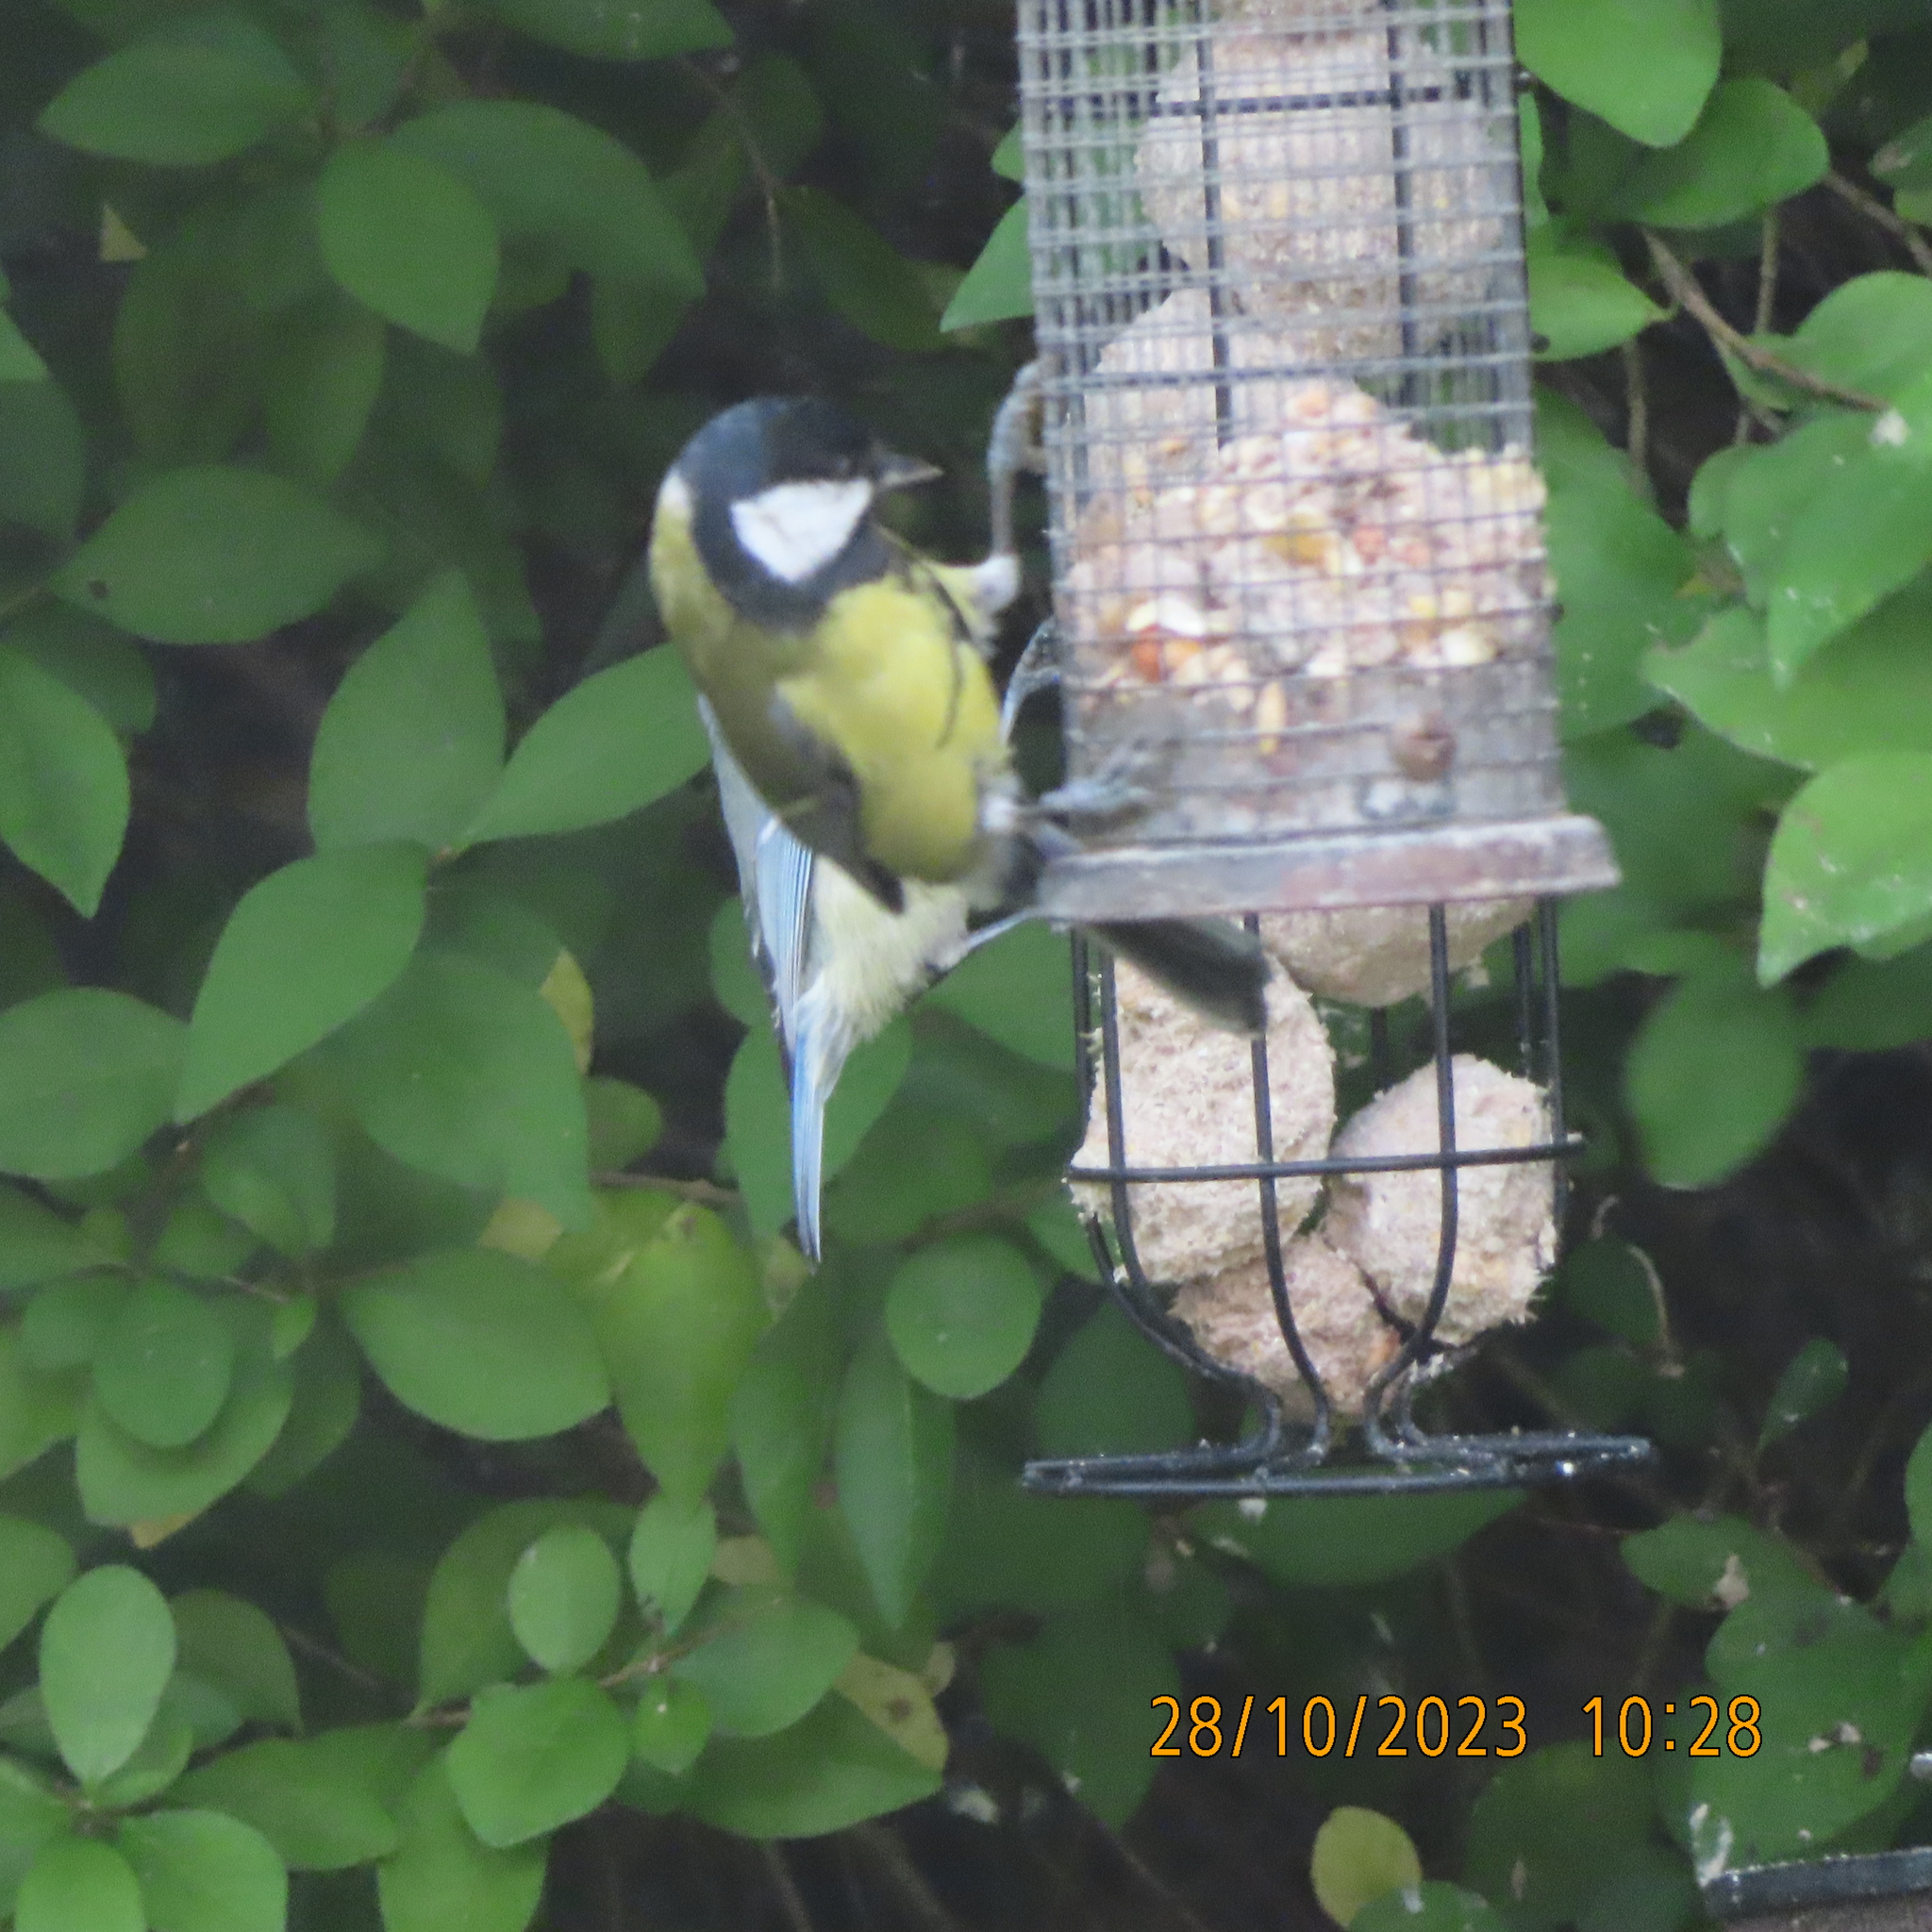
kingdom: Animalia
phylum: Chordata
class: Aves
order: Passeriformes
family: Paridae
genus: Parus
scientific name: Parus major
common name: Great tit
